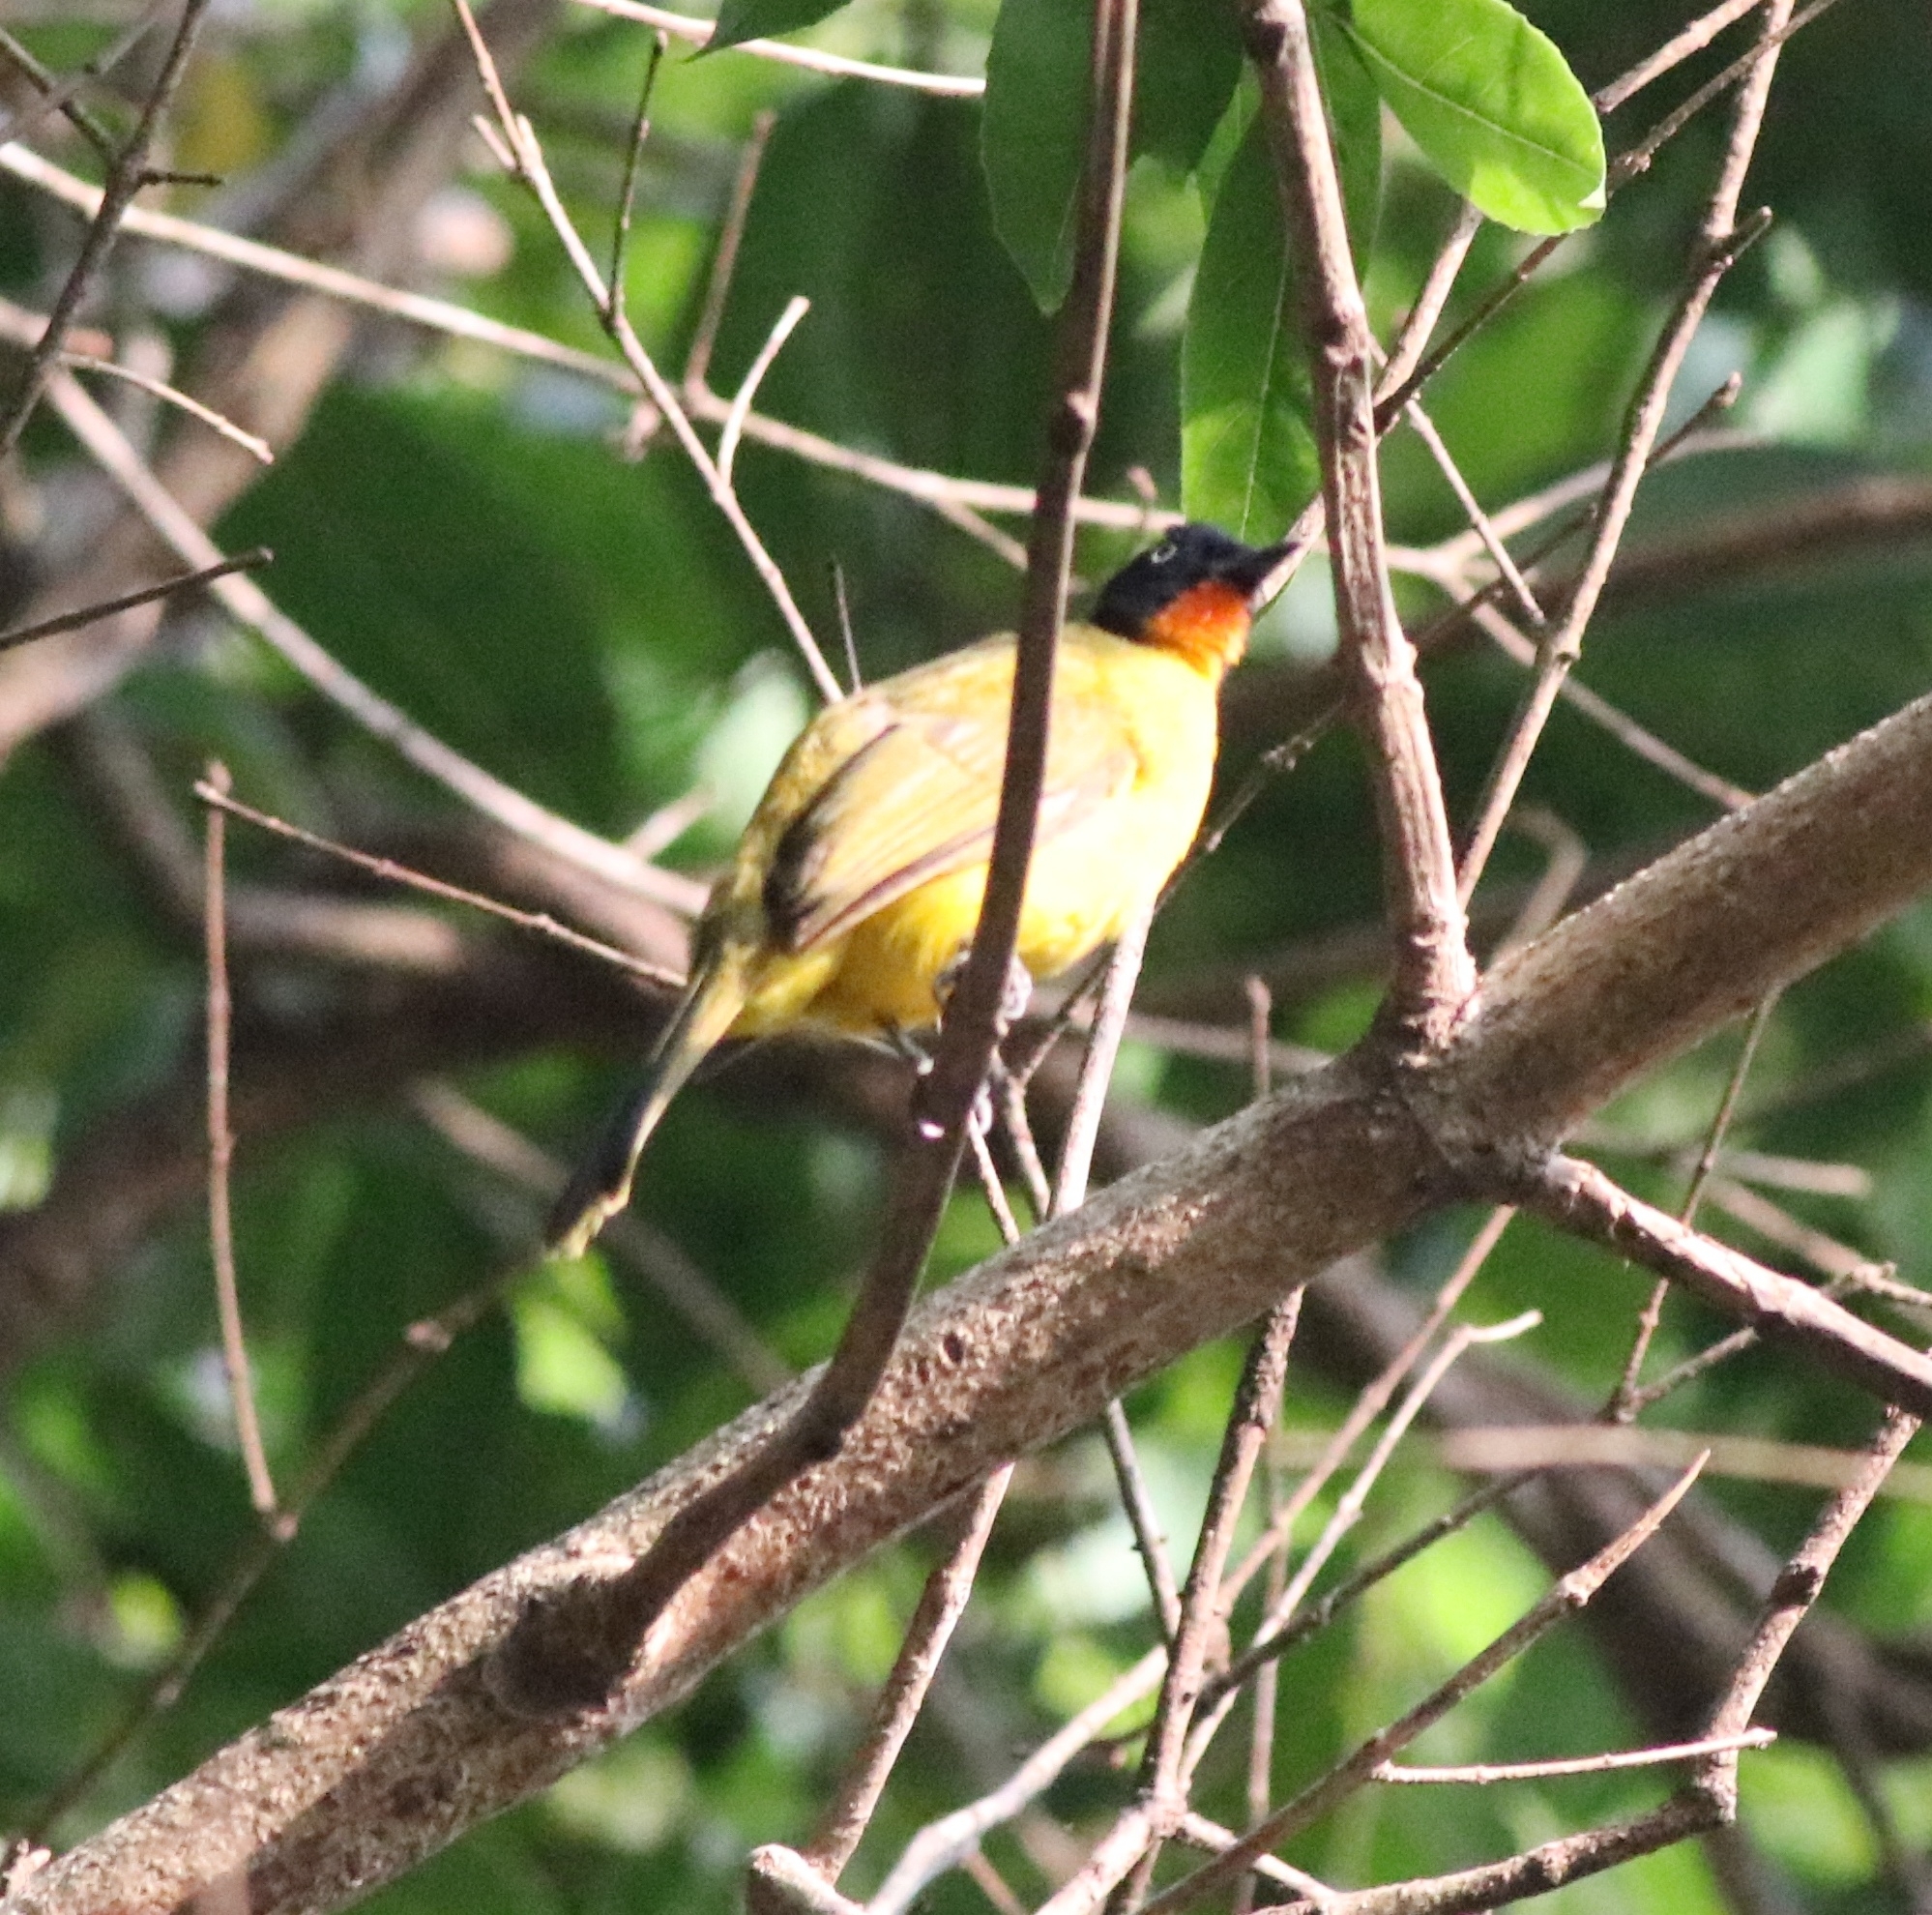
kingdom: Animalia
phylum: Chordata
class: Aves
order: Passeriformes
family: Pycnonotidae
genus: Pycnonotus
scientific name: Pycnonotus gularis
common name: Flame-throated bulbul
